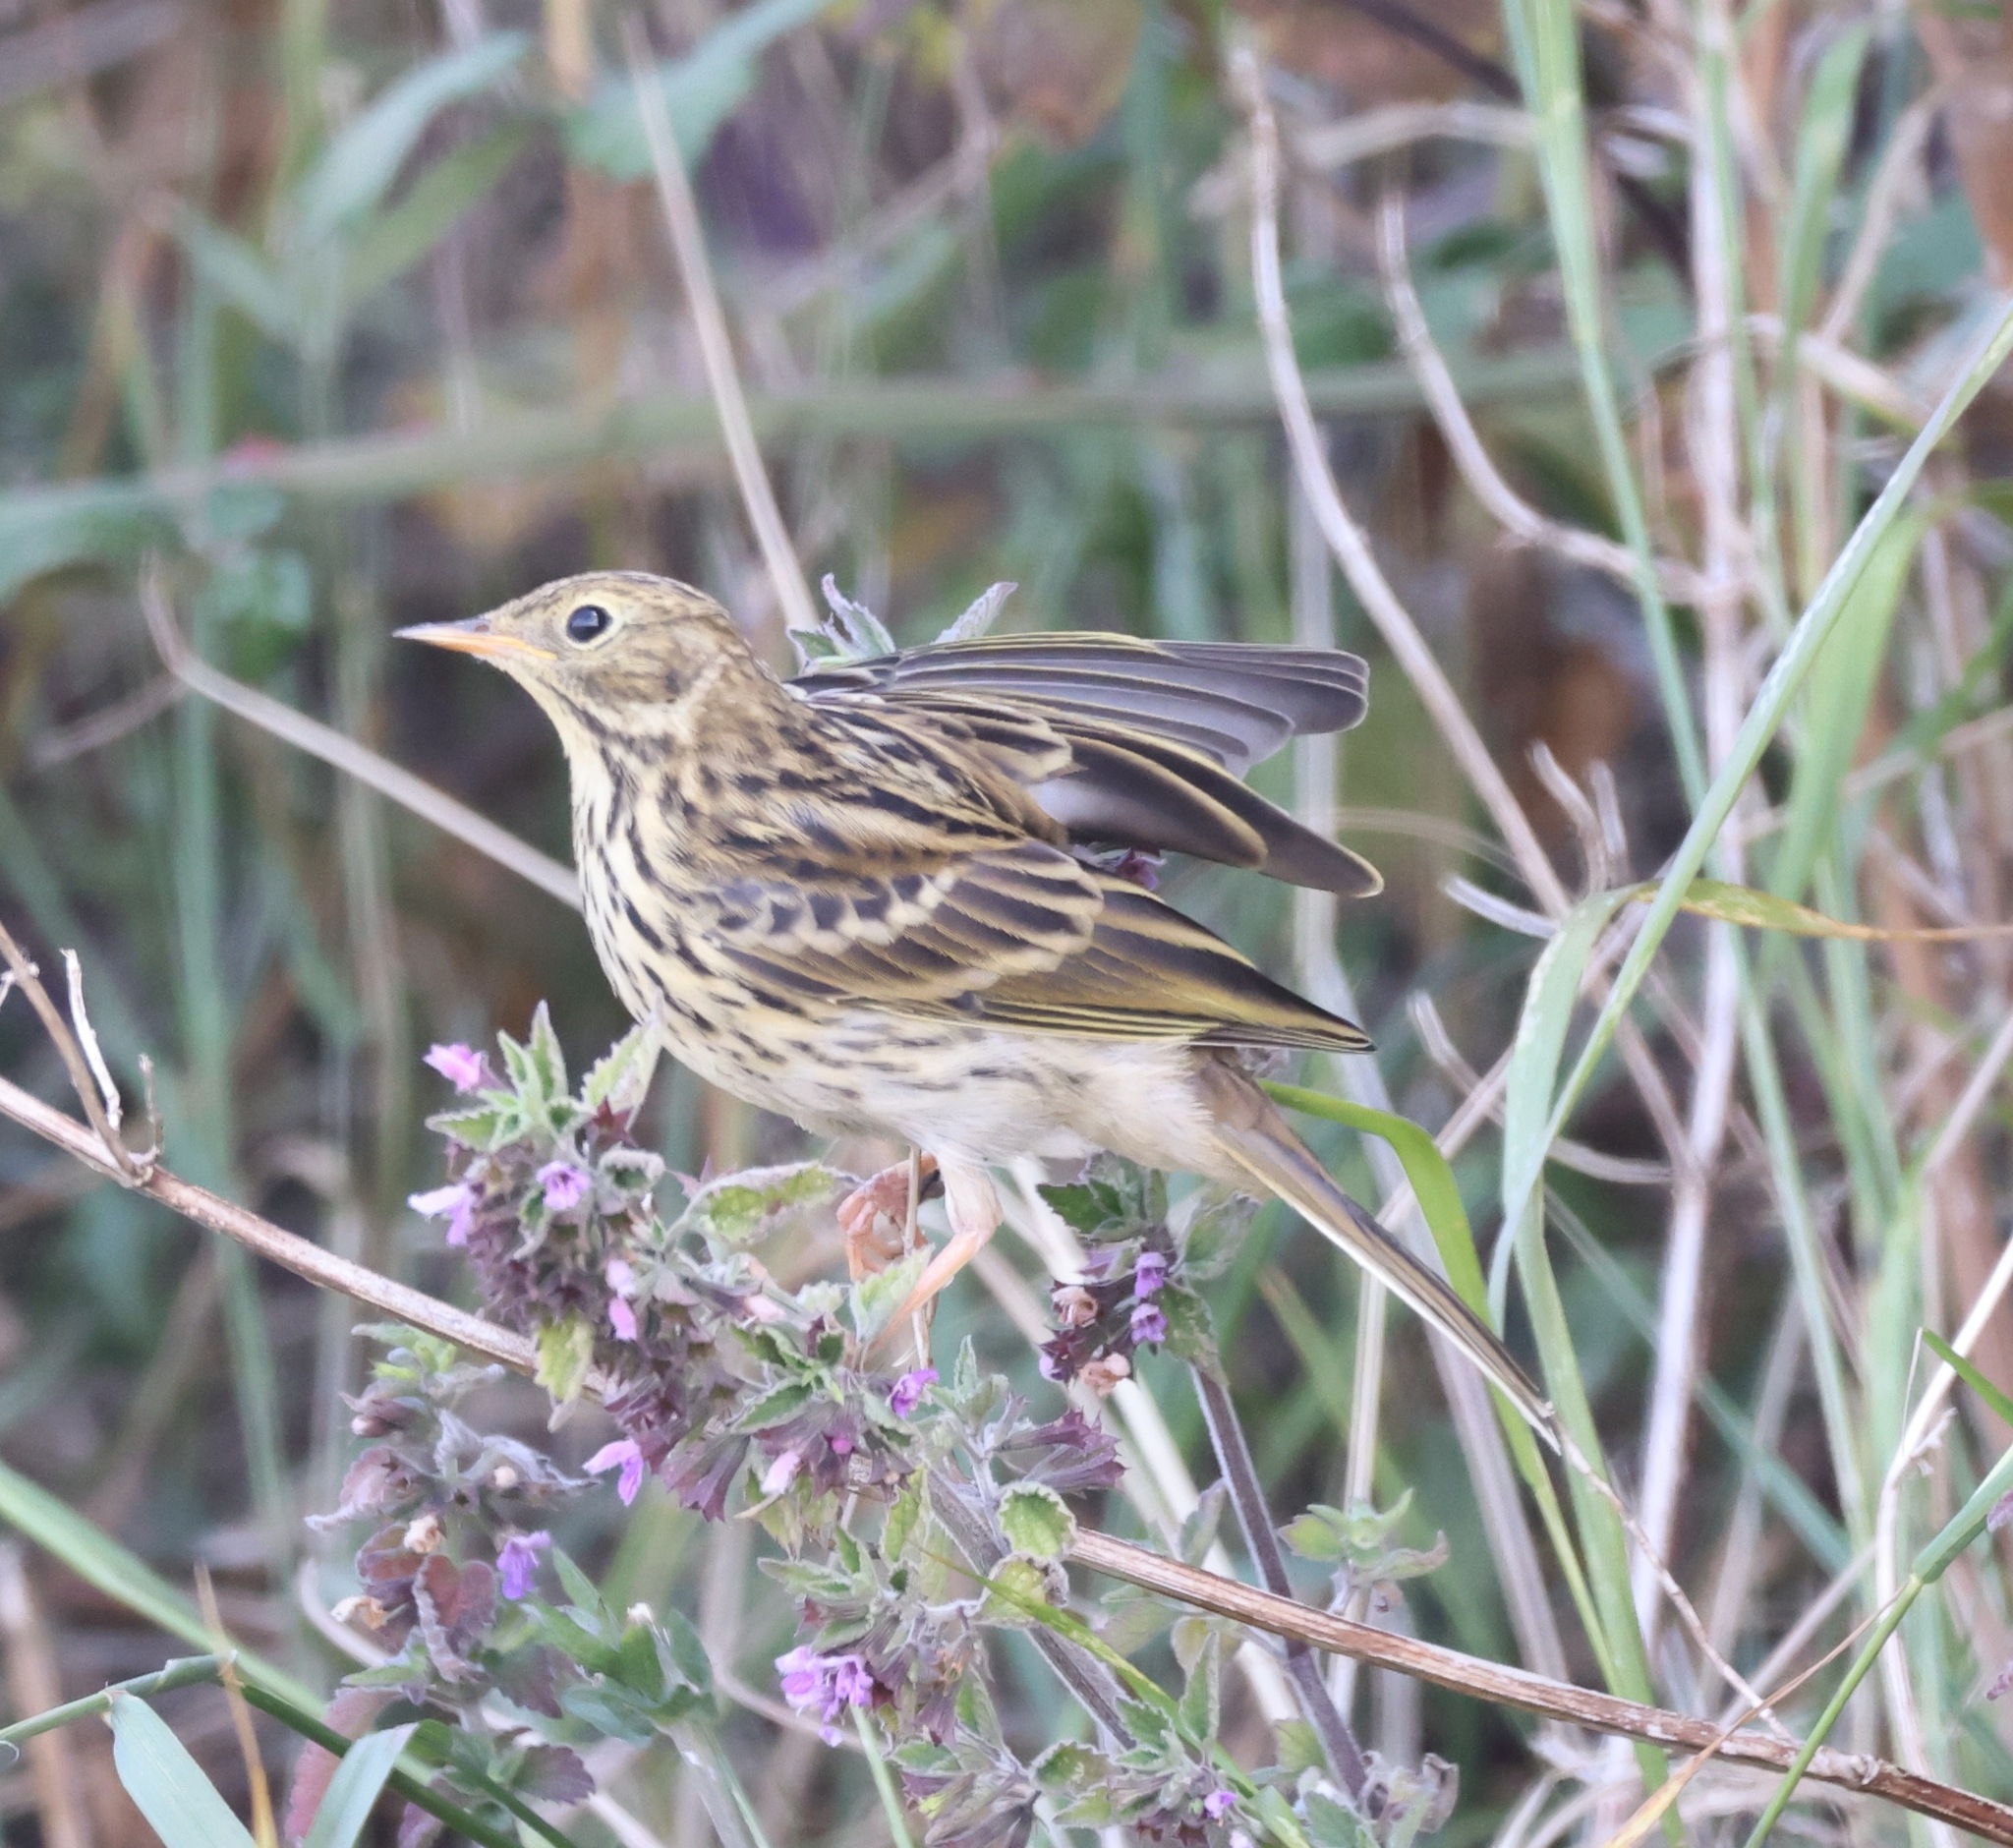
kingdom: Animalia
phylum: Chordata
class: Aves
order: Passeriformes
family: Motacillidae
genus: Anthus
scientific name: Anthus pratensis
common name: Meadow pipit
